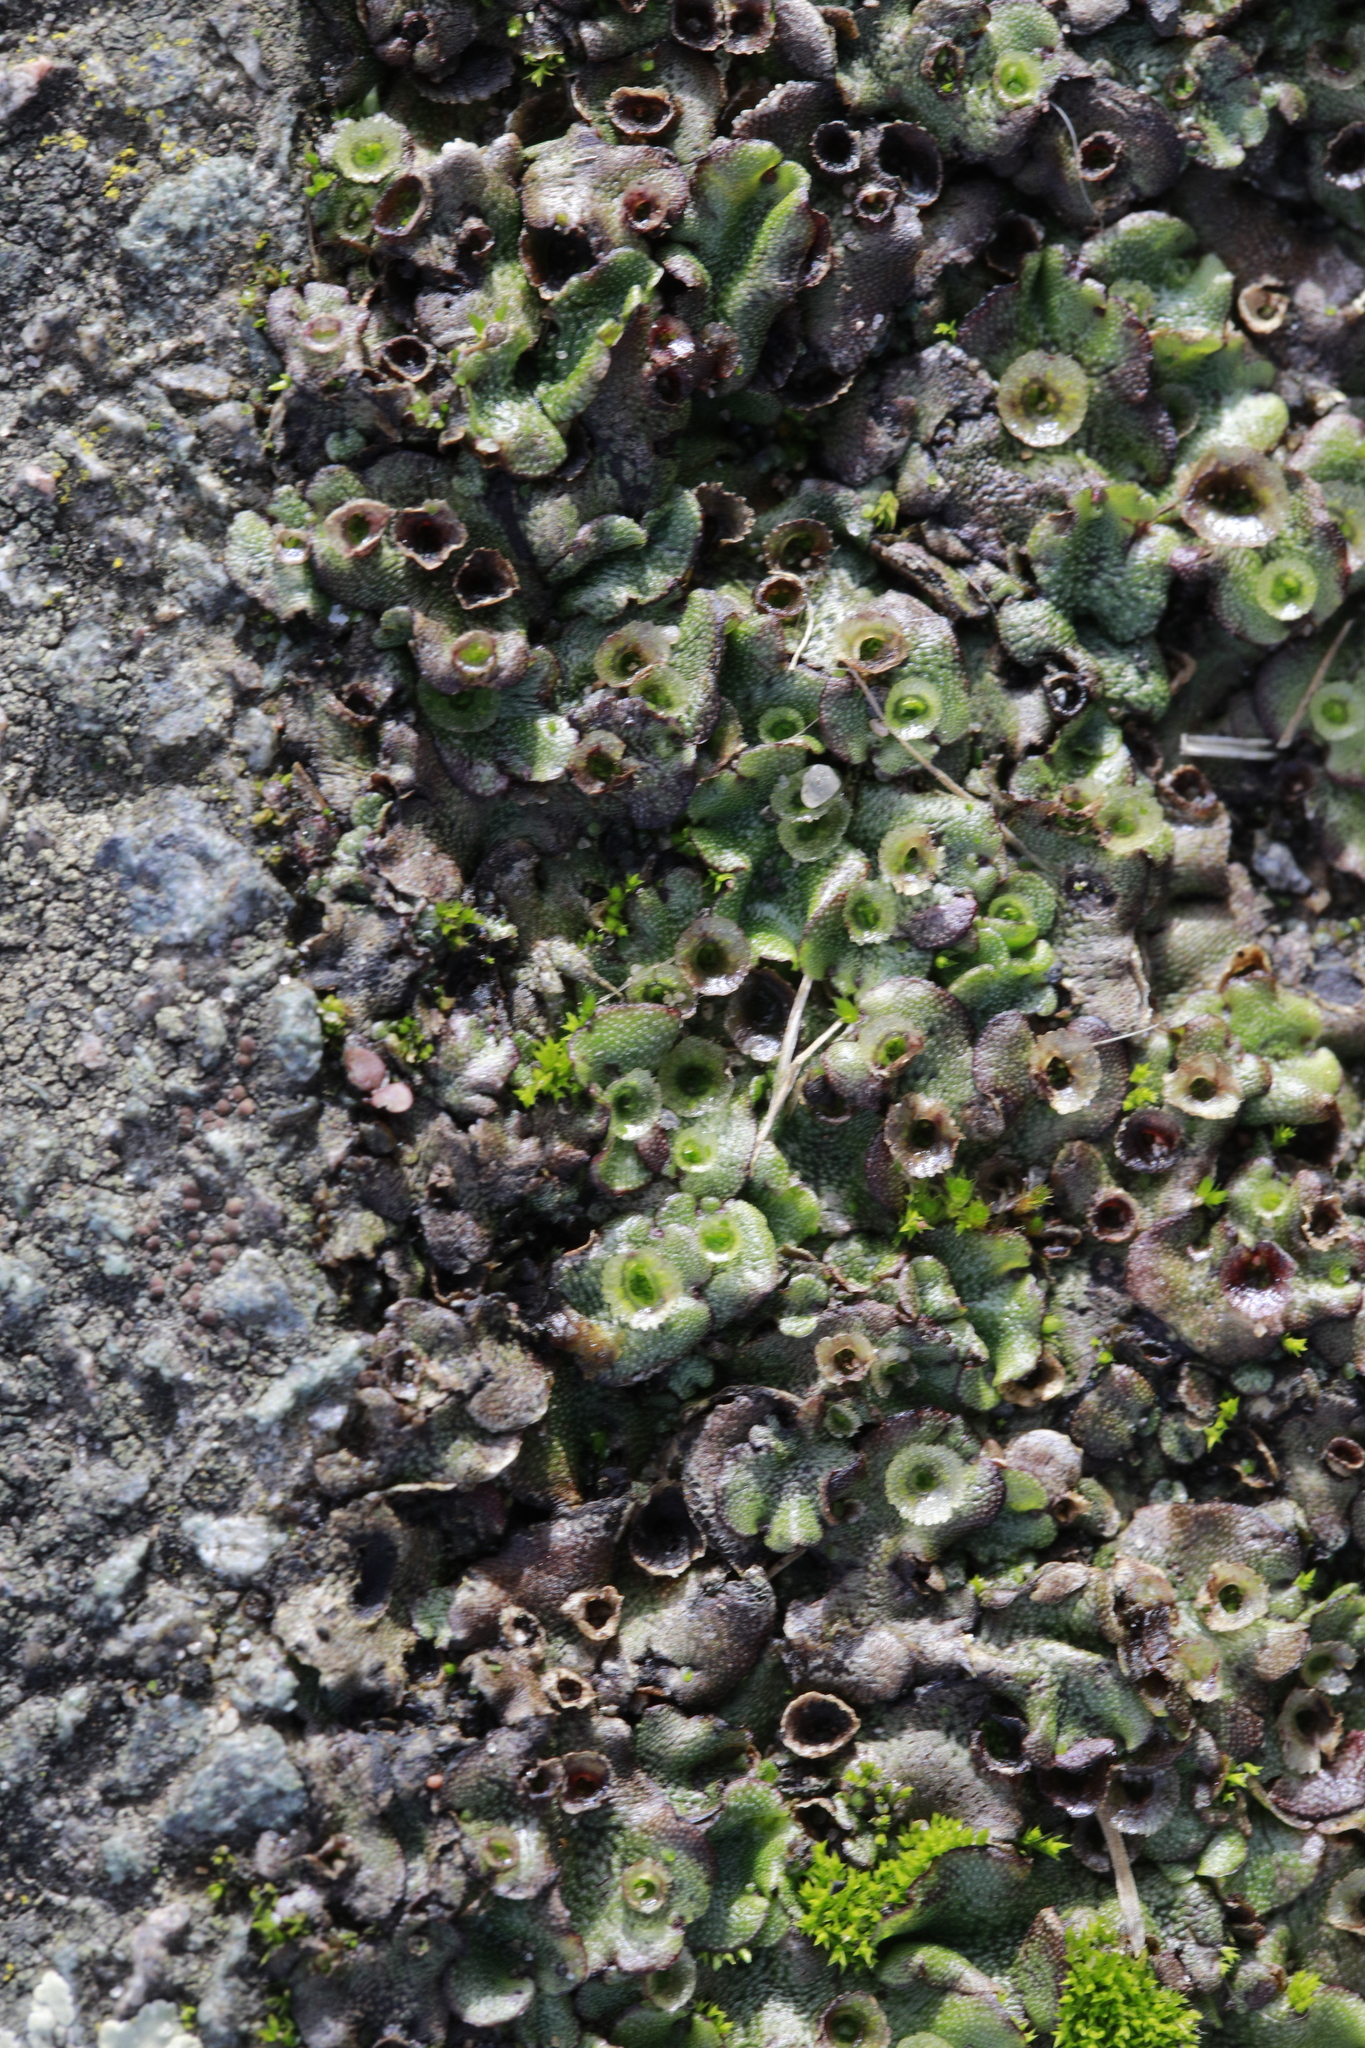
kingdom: Plantae
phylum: Marchantiophyta
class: Marchantiopsida
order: Marchantiales
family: Marchantiaceae
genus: Marchantia
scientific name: Marchantia polymorpha
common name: Common liverwort
